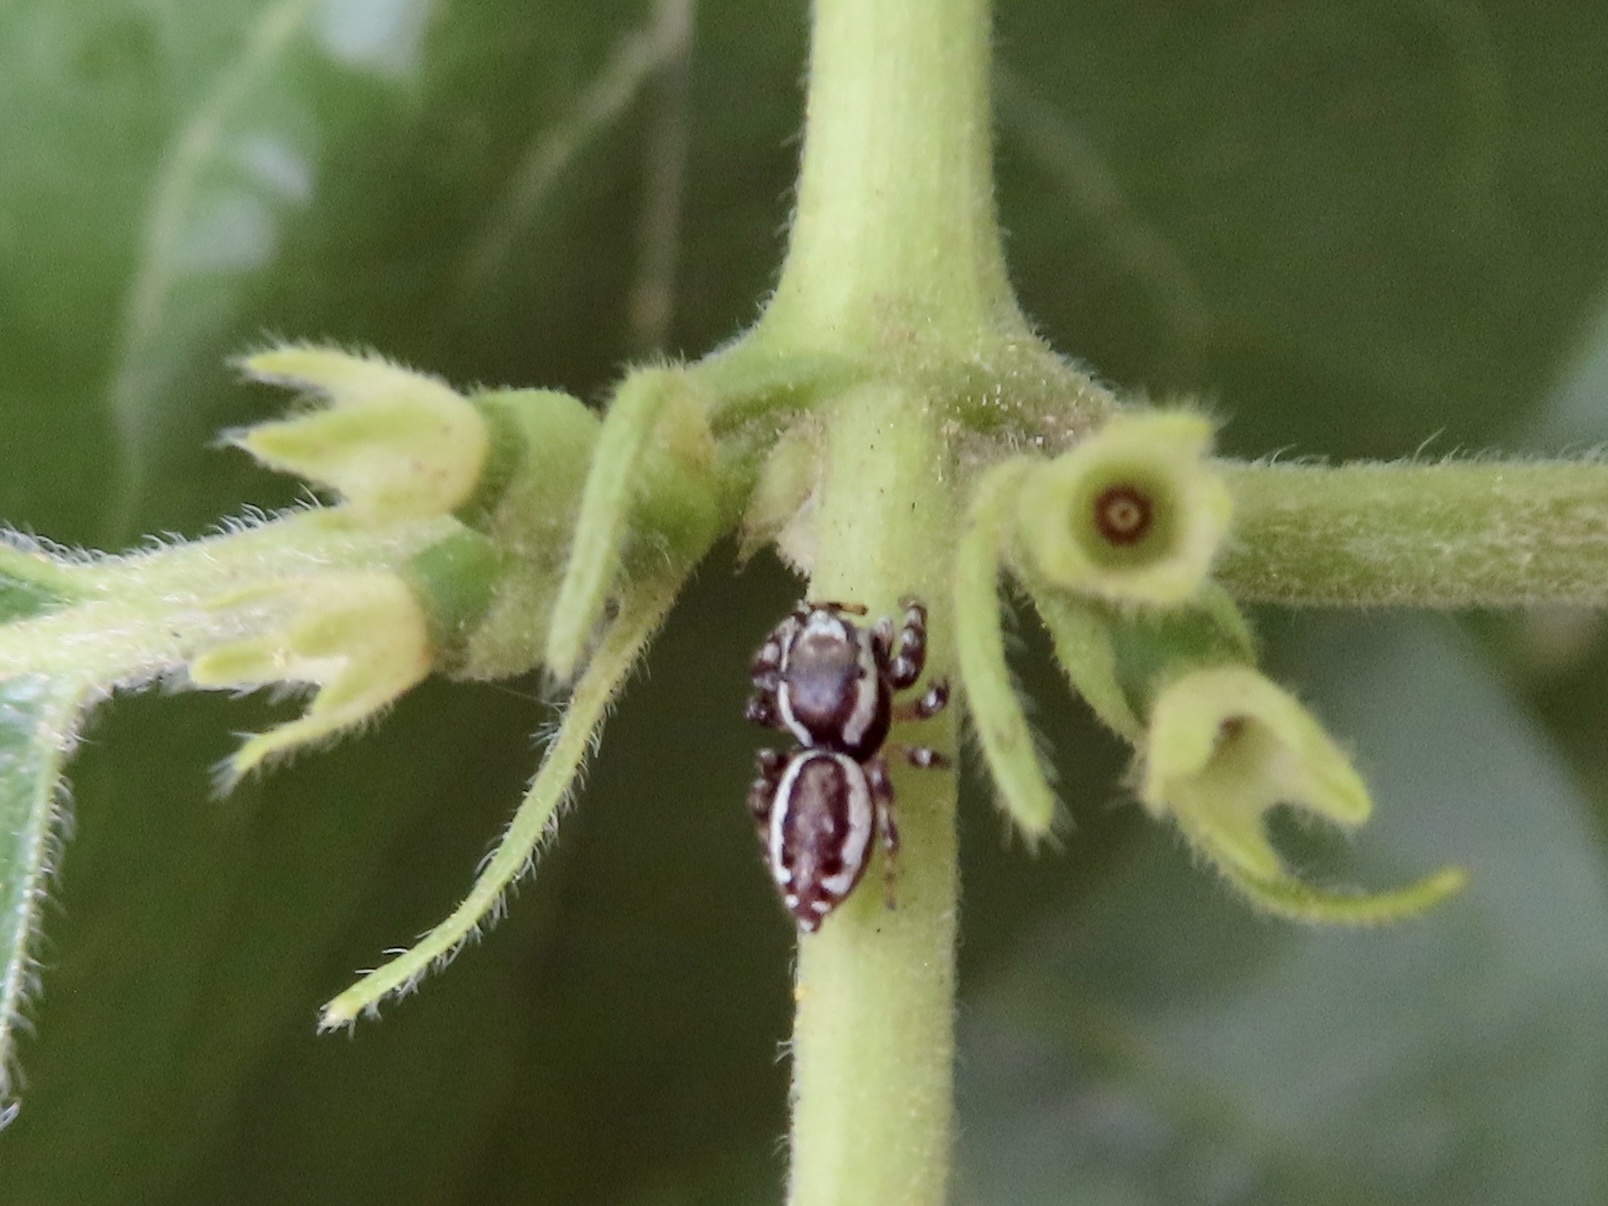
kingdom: Animalia
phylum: Arthropoda
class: Arachnida
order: Araneae
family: Salticidae
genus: Pelegrina
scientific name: Pelegrina proterva
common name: Common white-cheeked jumping spider
